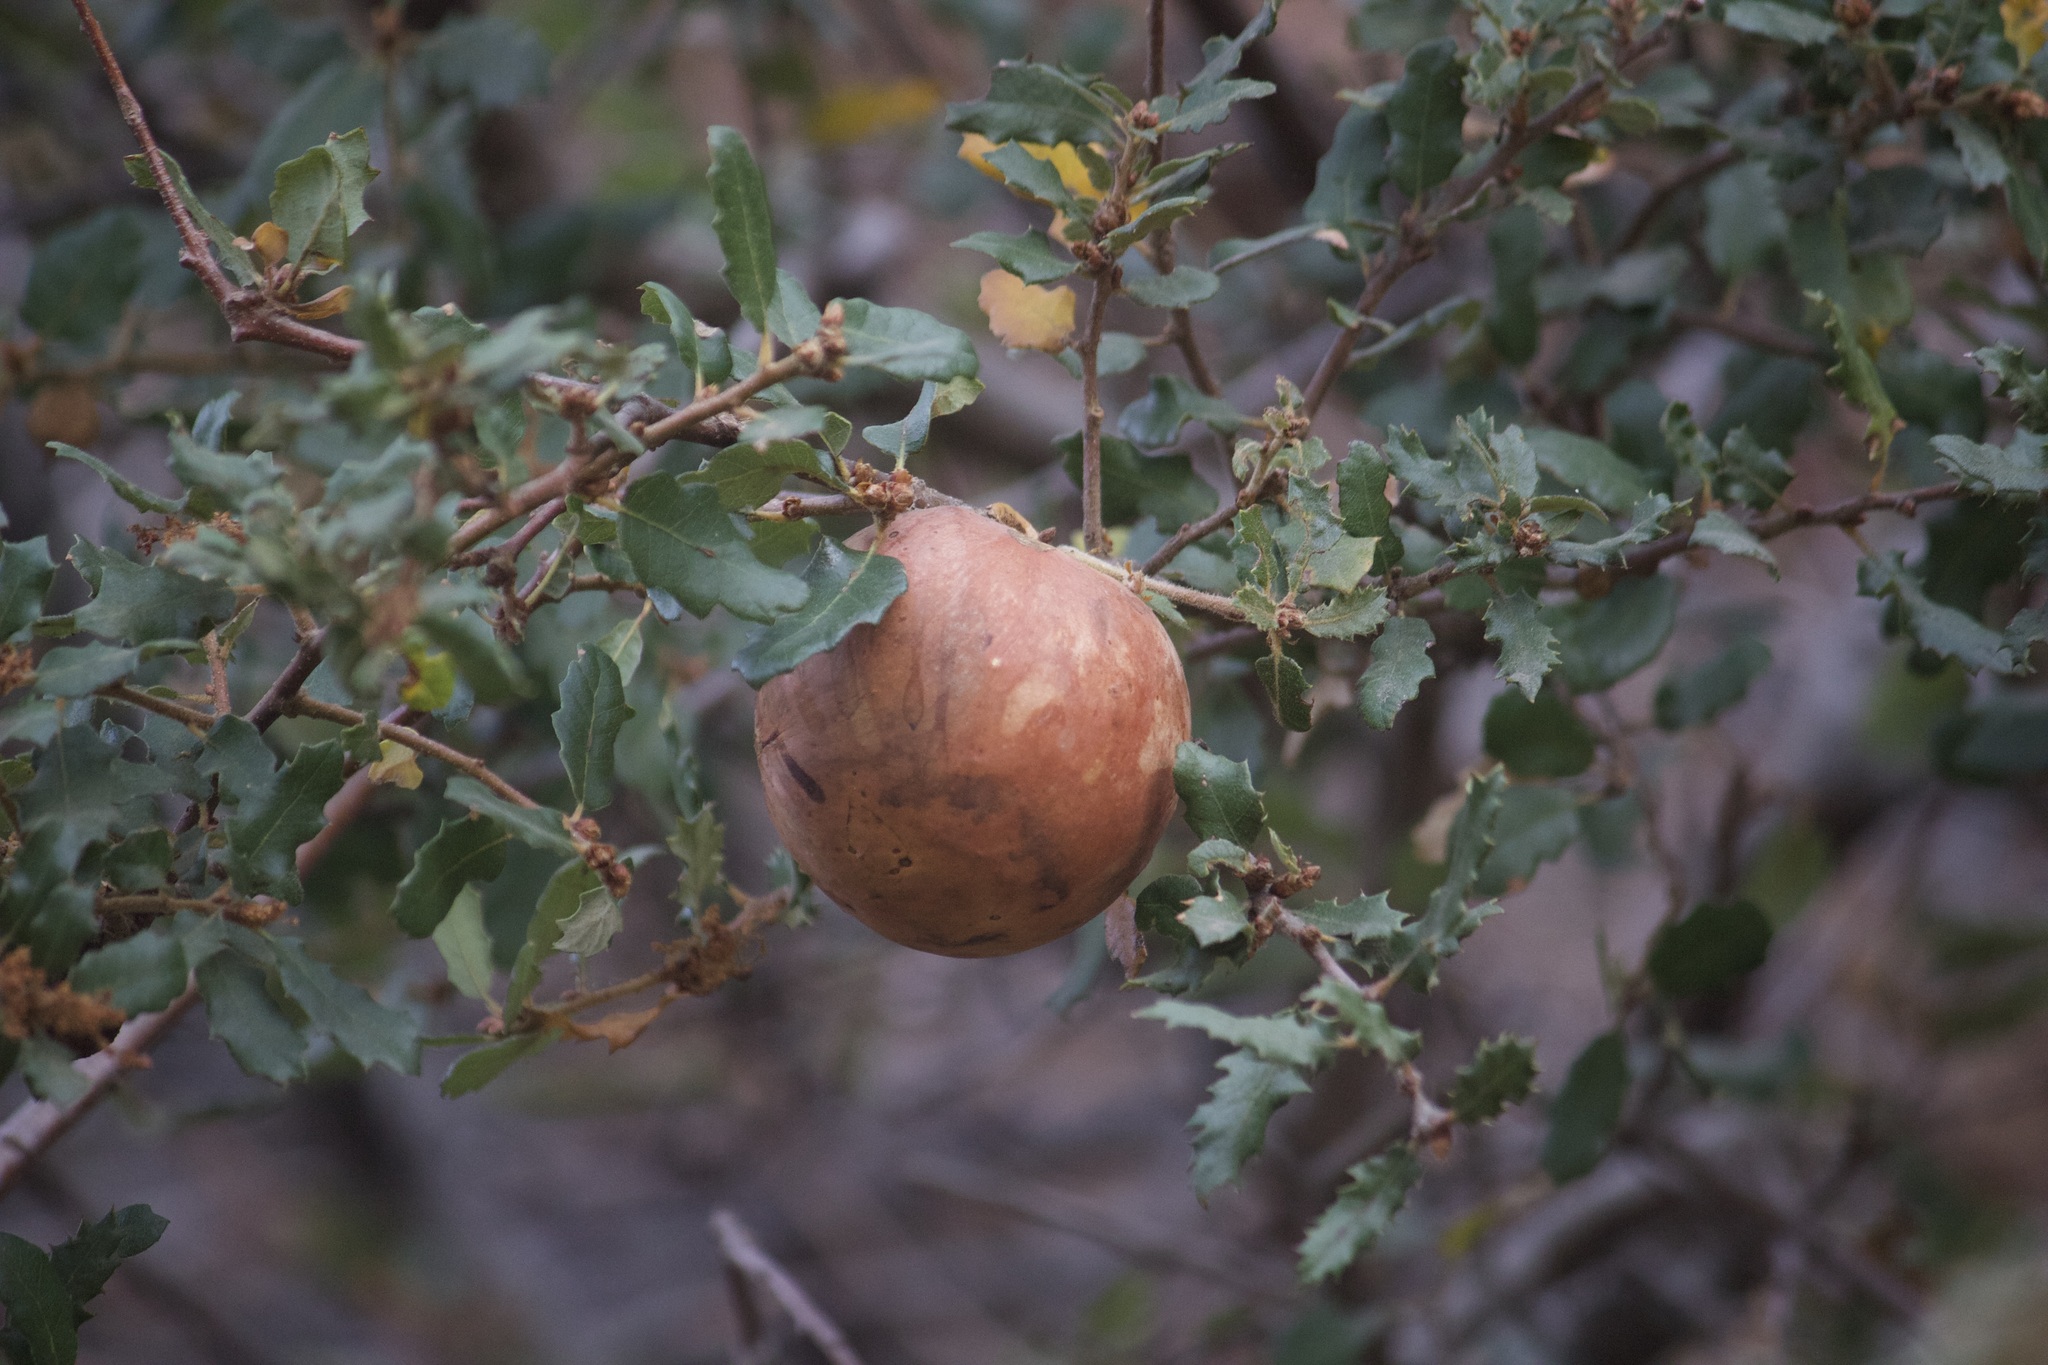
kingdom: Animalia
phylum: Arthropoda
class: Insecta
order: Hymenoptera
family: Cynipidae
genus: Andricus
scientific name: Andricus quercuscalifornicus
